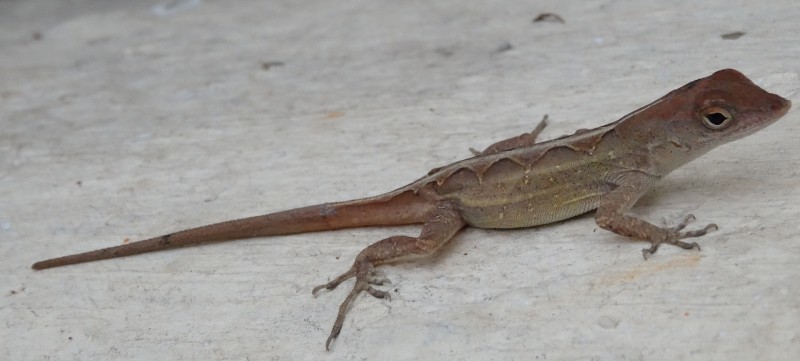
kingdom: Animalia
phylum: Chordata
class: Squamata
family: Dactyloidae
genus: Anolis
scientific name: Anolis sagrei
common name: Brown anole
